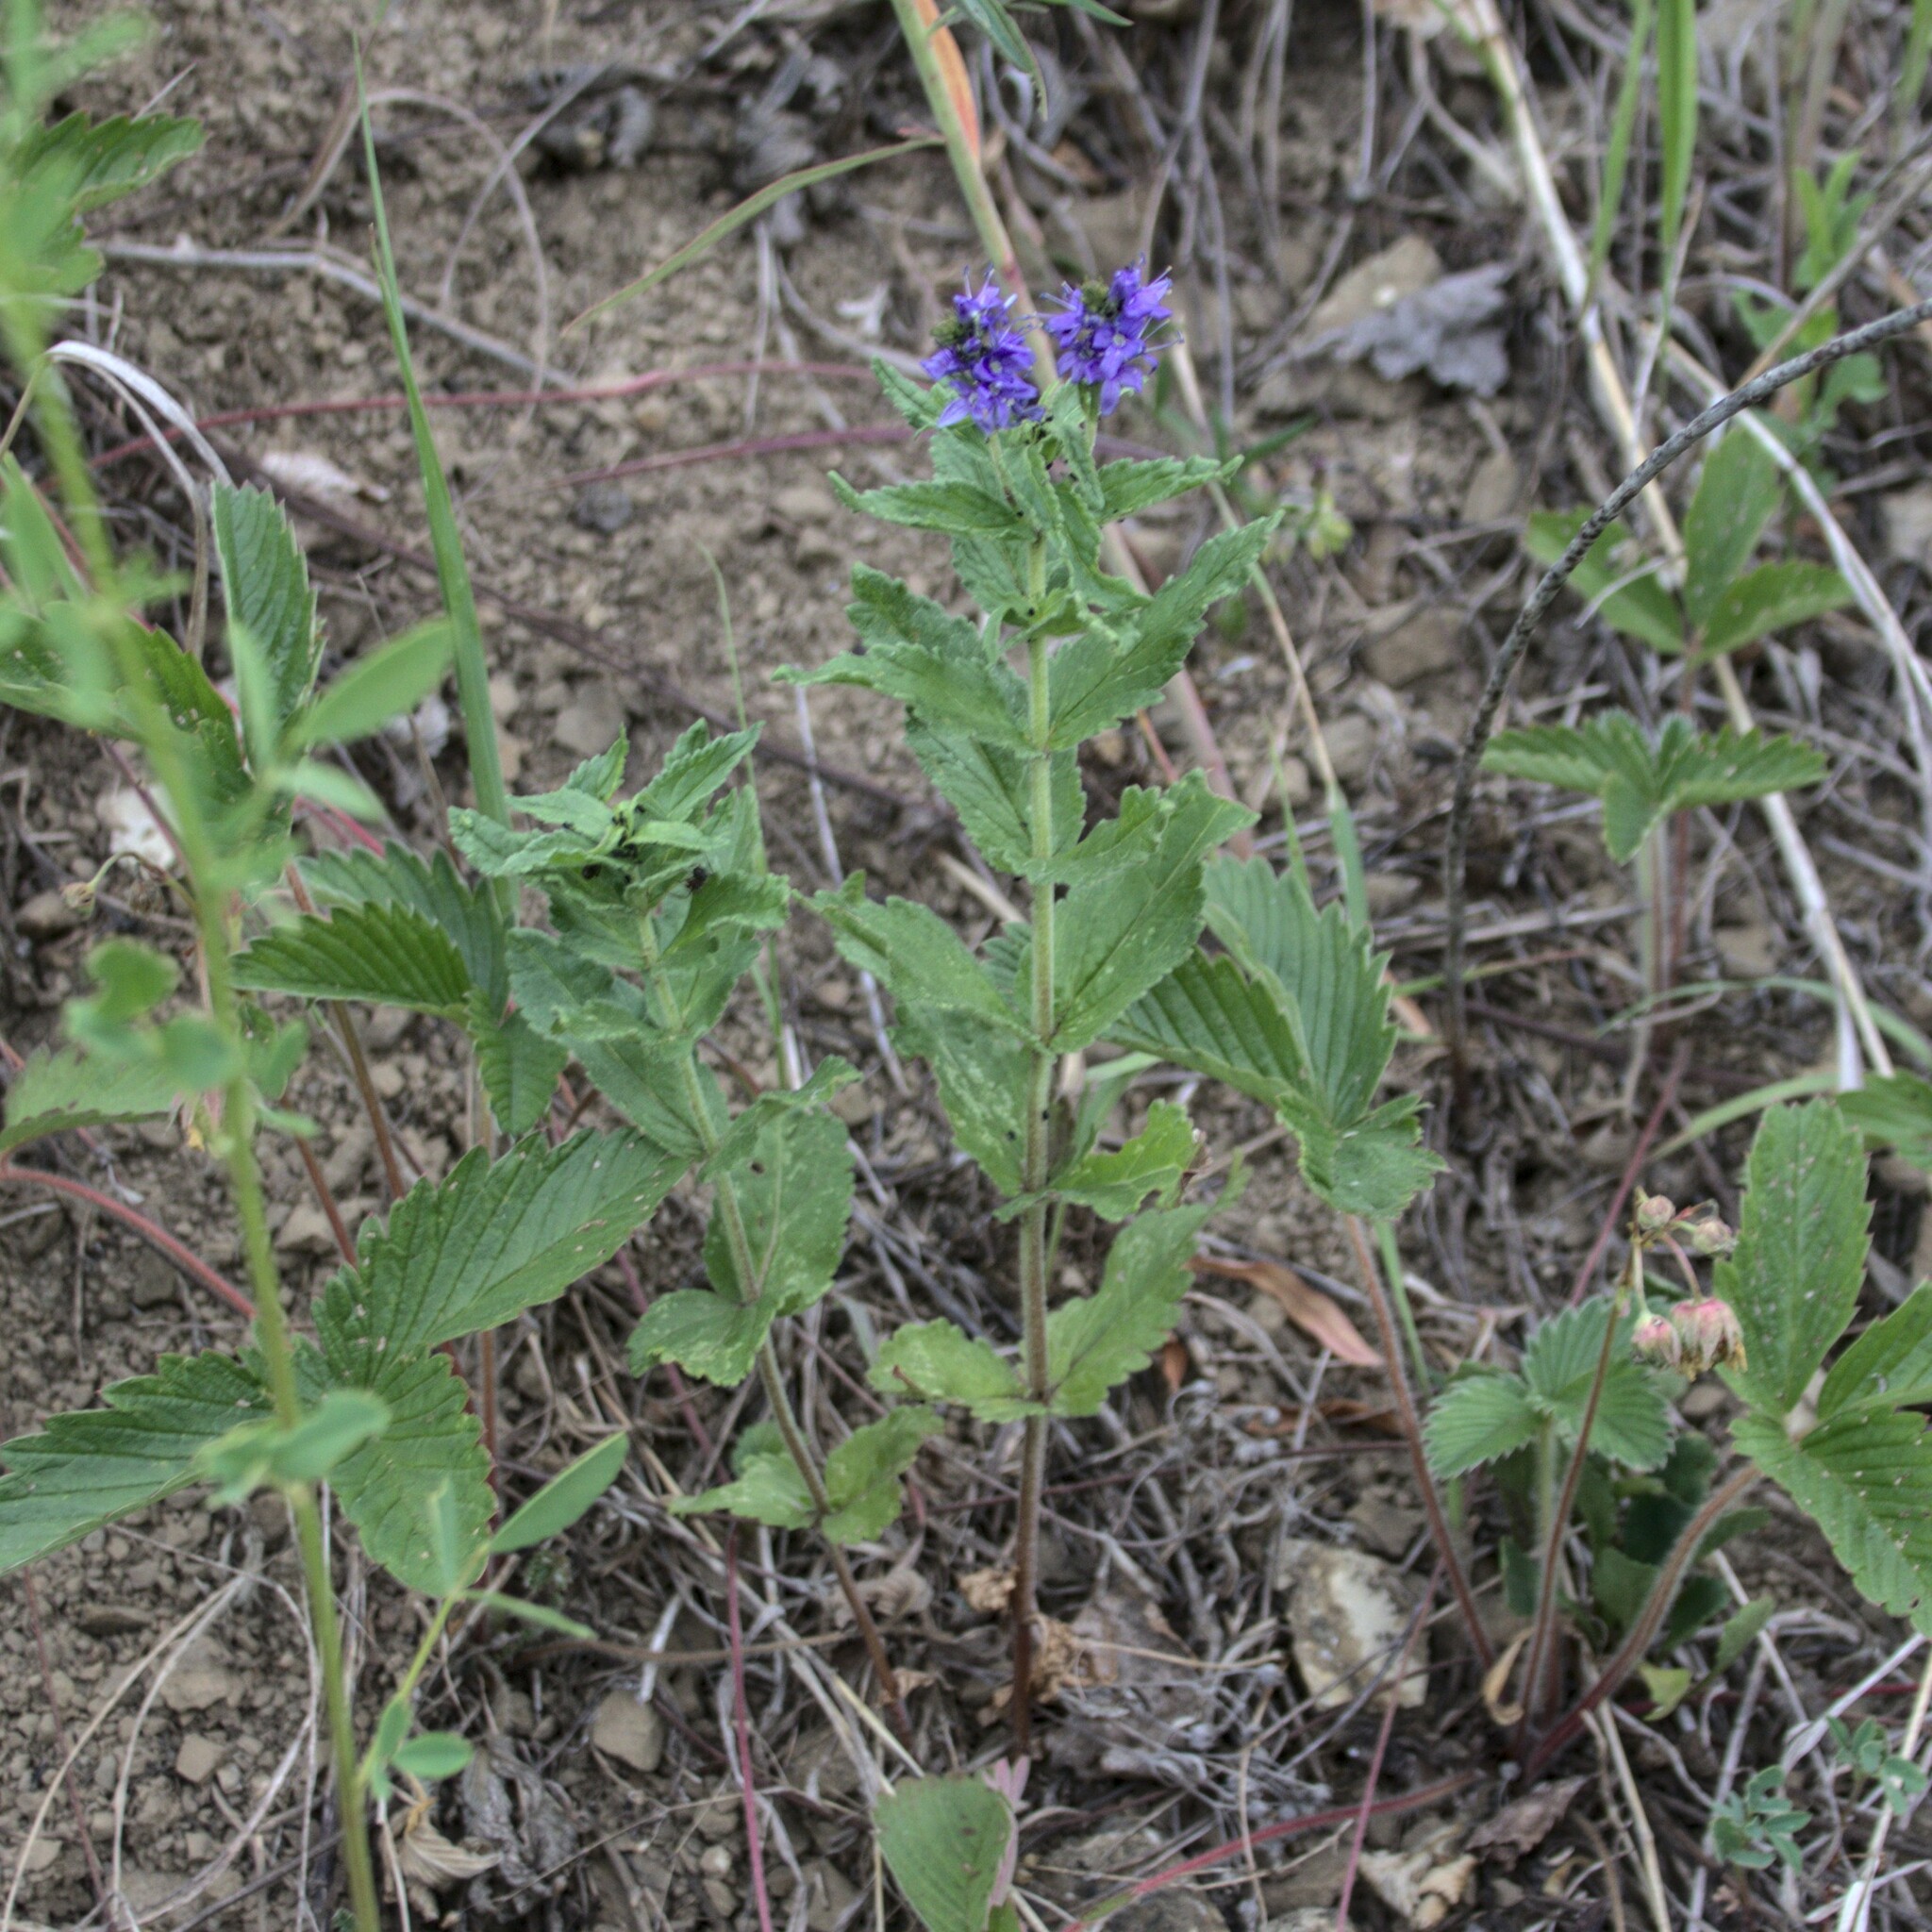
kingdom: Plantae
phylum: Tracheophyta
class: Magnoliopsida
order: Lamiales
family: Plantaginaceae
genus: Veronica
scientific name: Veronica teucrium
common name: Large speedwell
